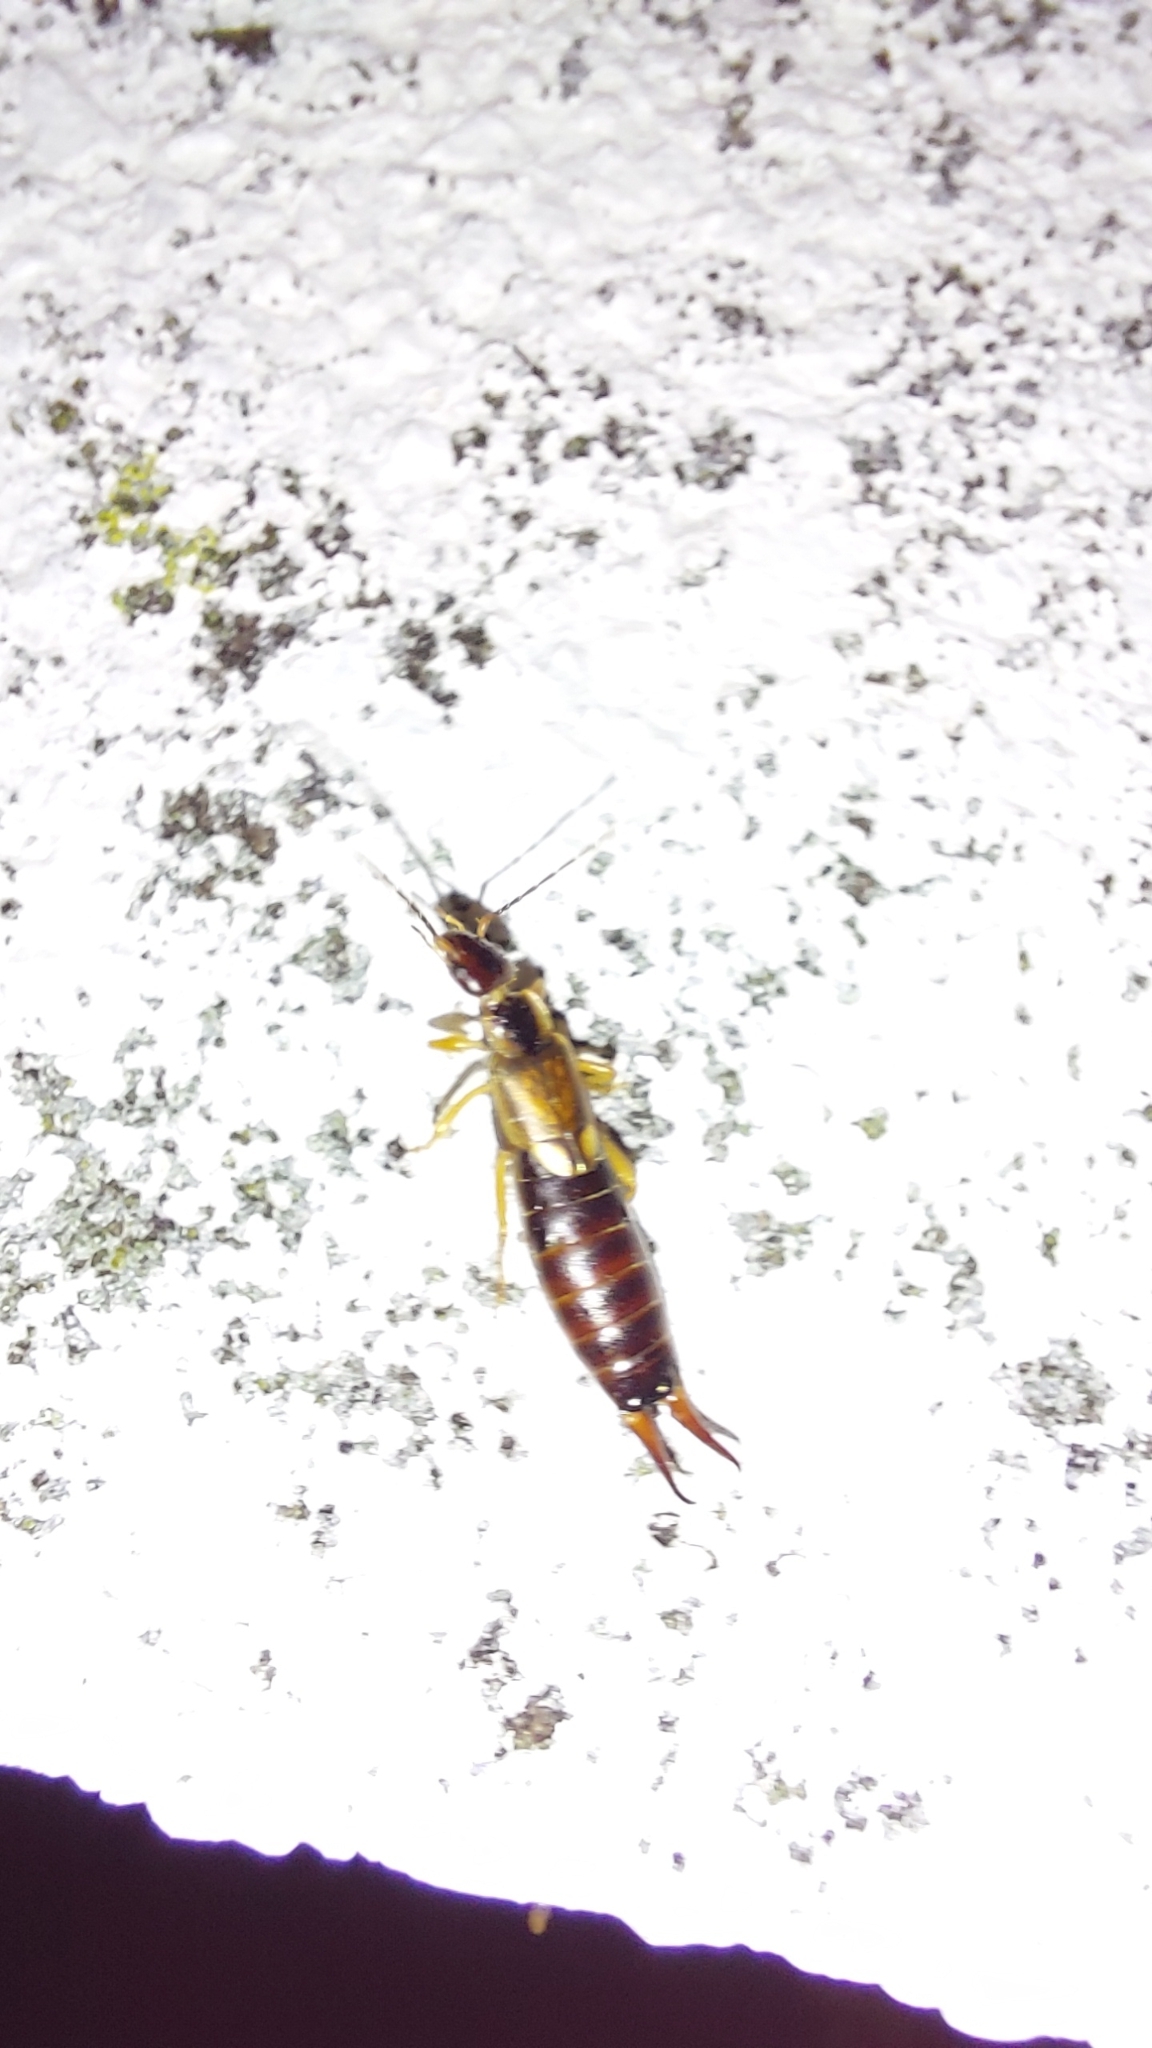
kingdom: Animalia
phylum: Arthropoda
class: Insecta
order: Dermaptera
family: Forficulidae
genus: Forficula
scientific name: Forficula
